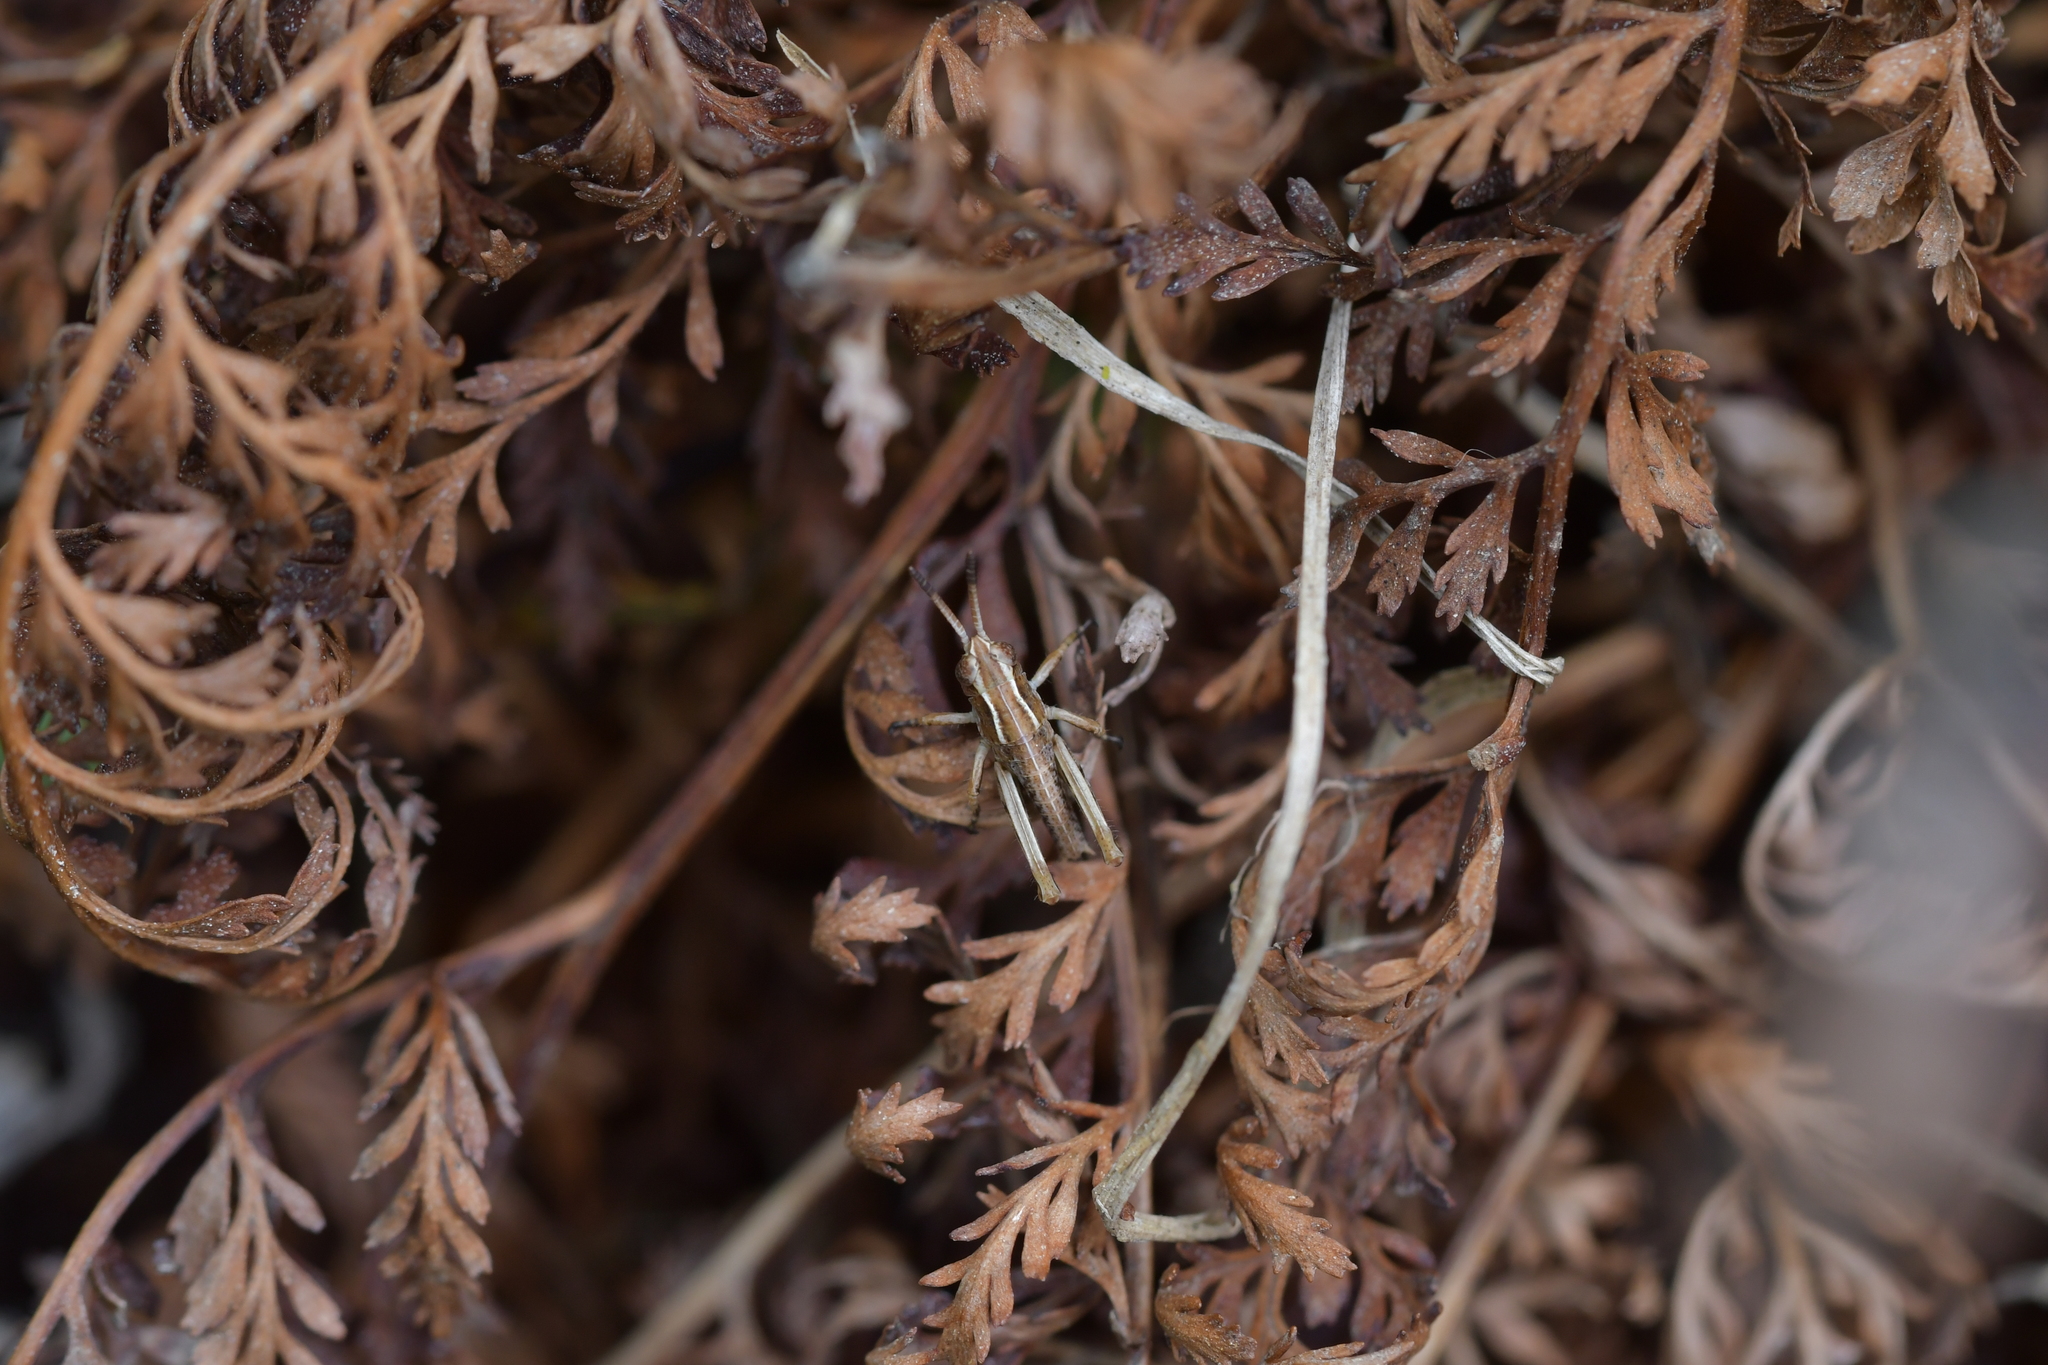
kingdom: Animalia
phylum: Arthropoda
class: Insecta
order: Orthoptera
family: Acrididae
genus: Phaulacridium
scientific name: Phaulacridium marginale
